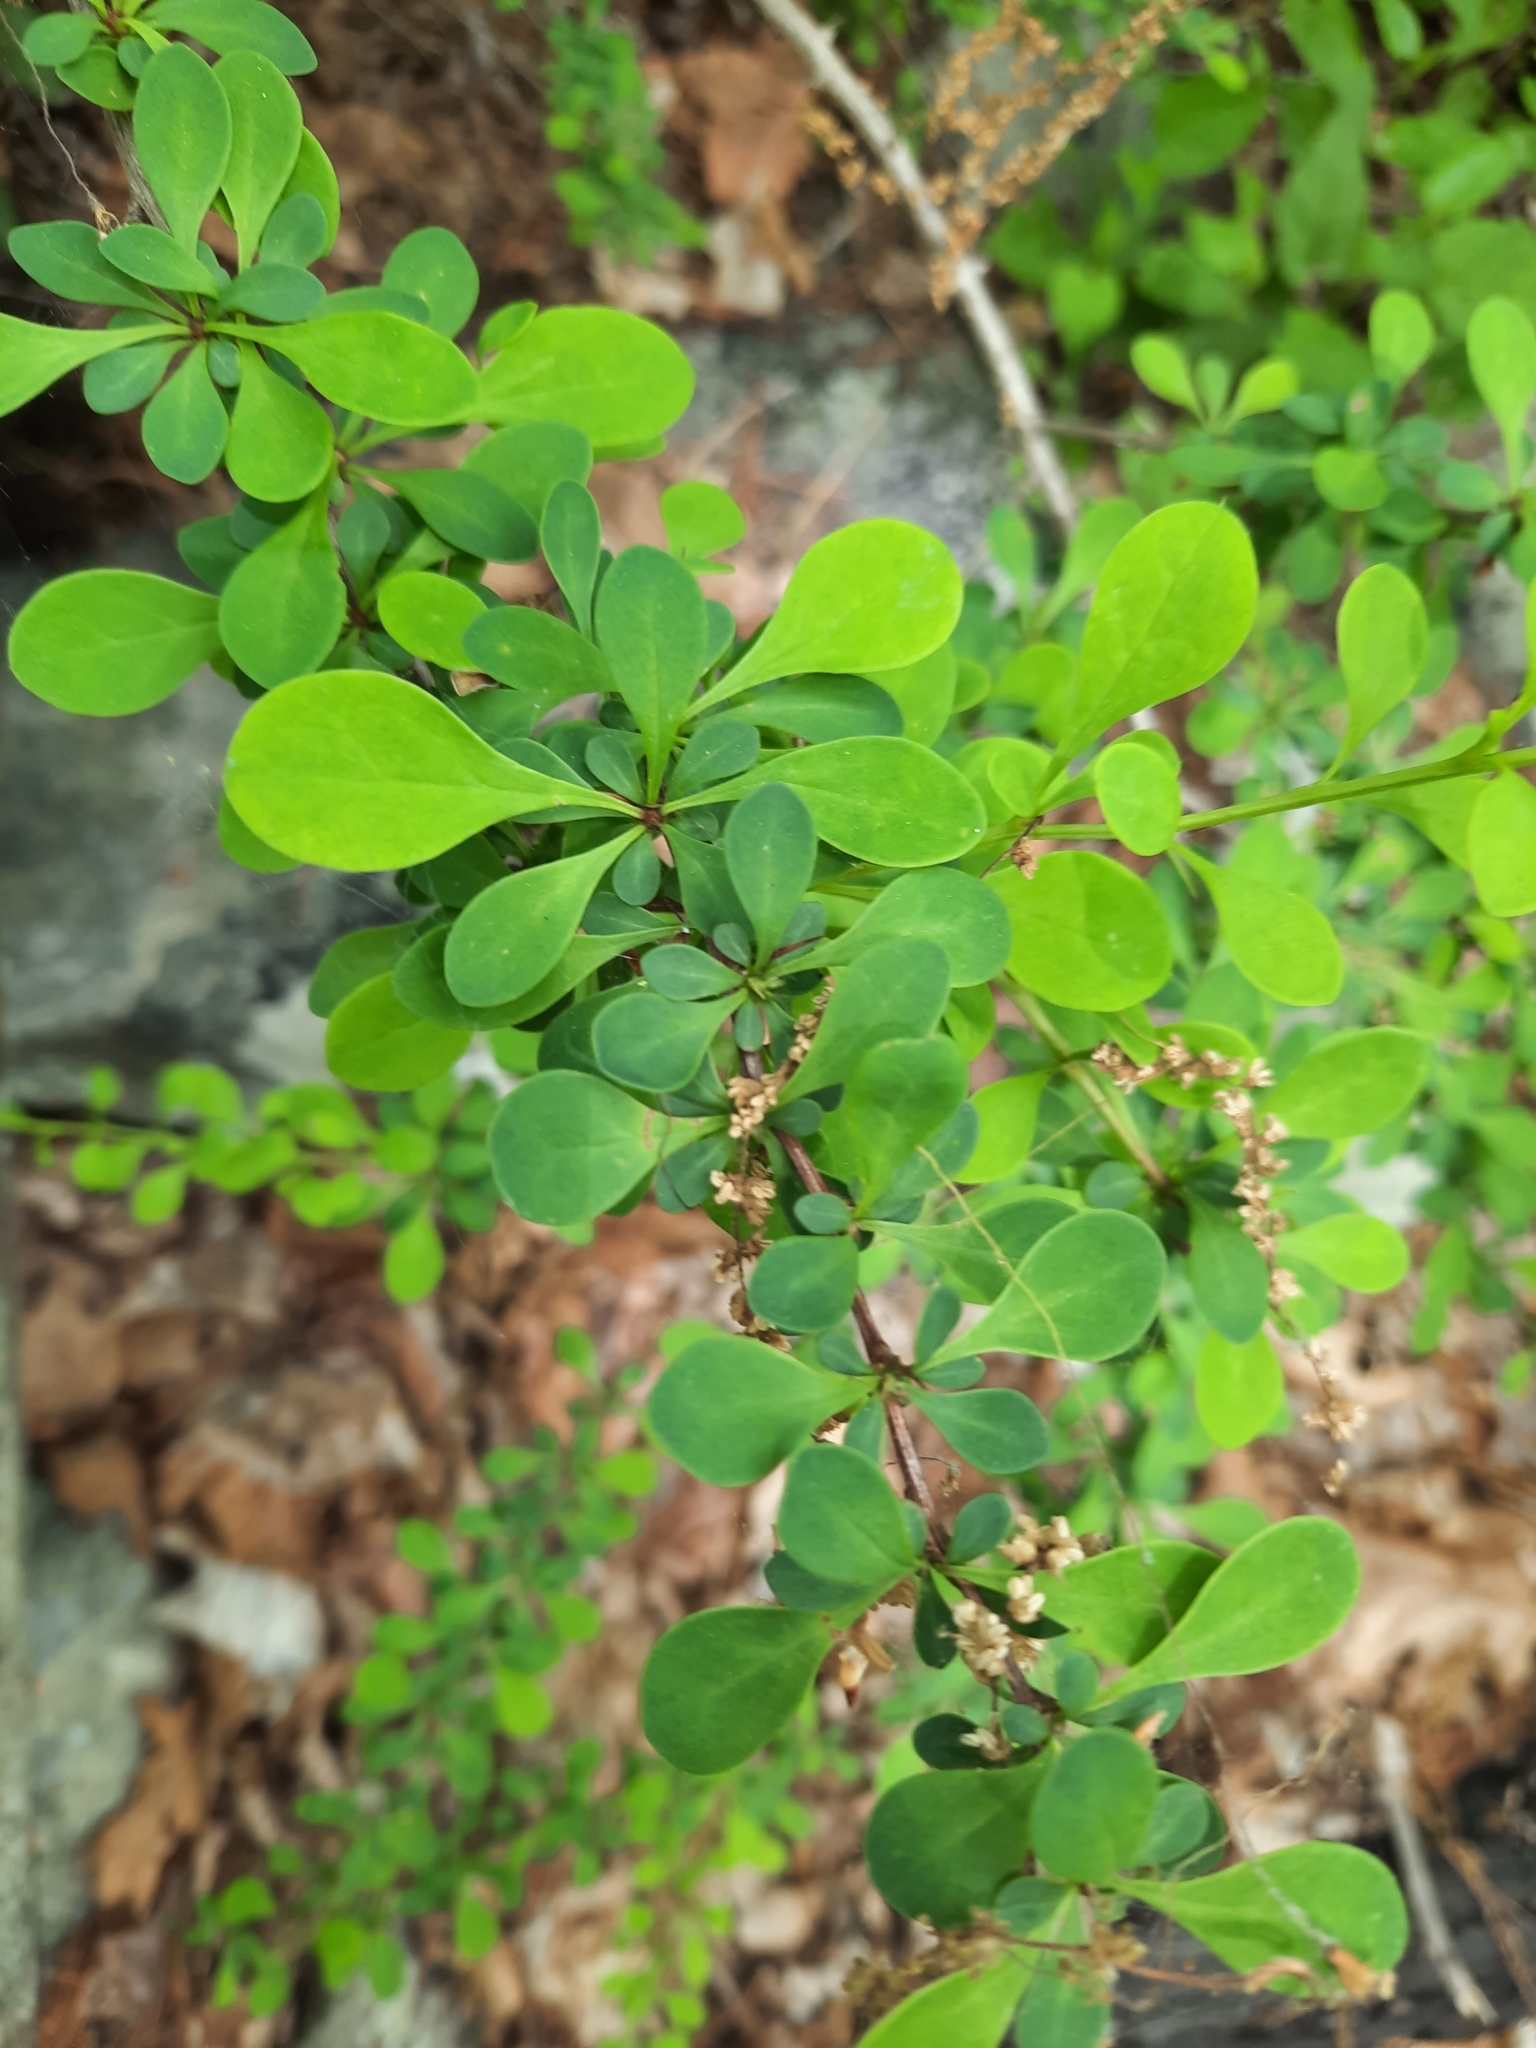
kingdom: Plantae
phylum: Tracheophyta
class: Magnoliopsida
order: Ranunculales
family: Berberidaceae
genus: Berberis
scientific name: Berberis thunbergii
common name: Japanese barberry
